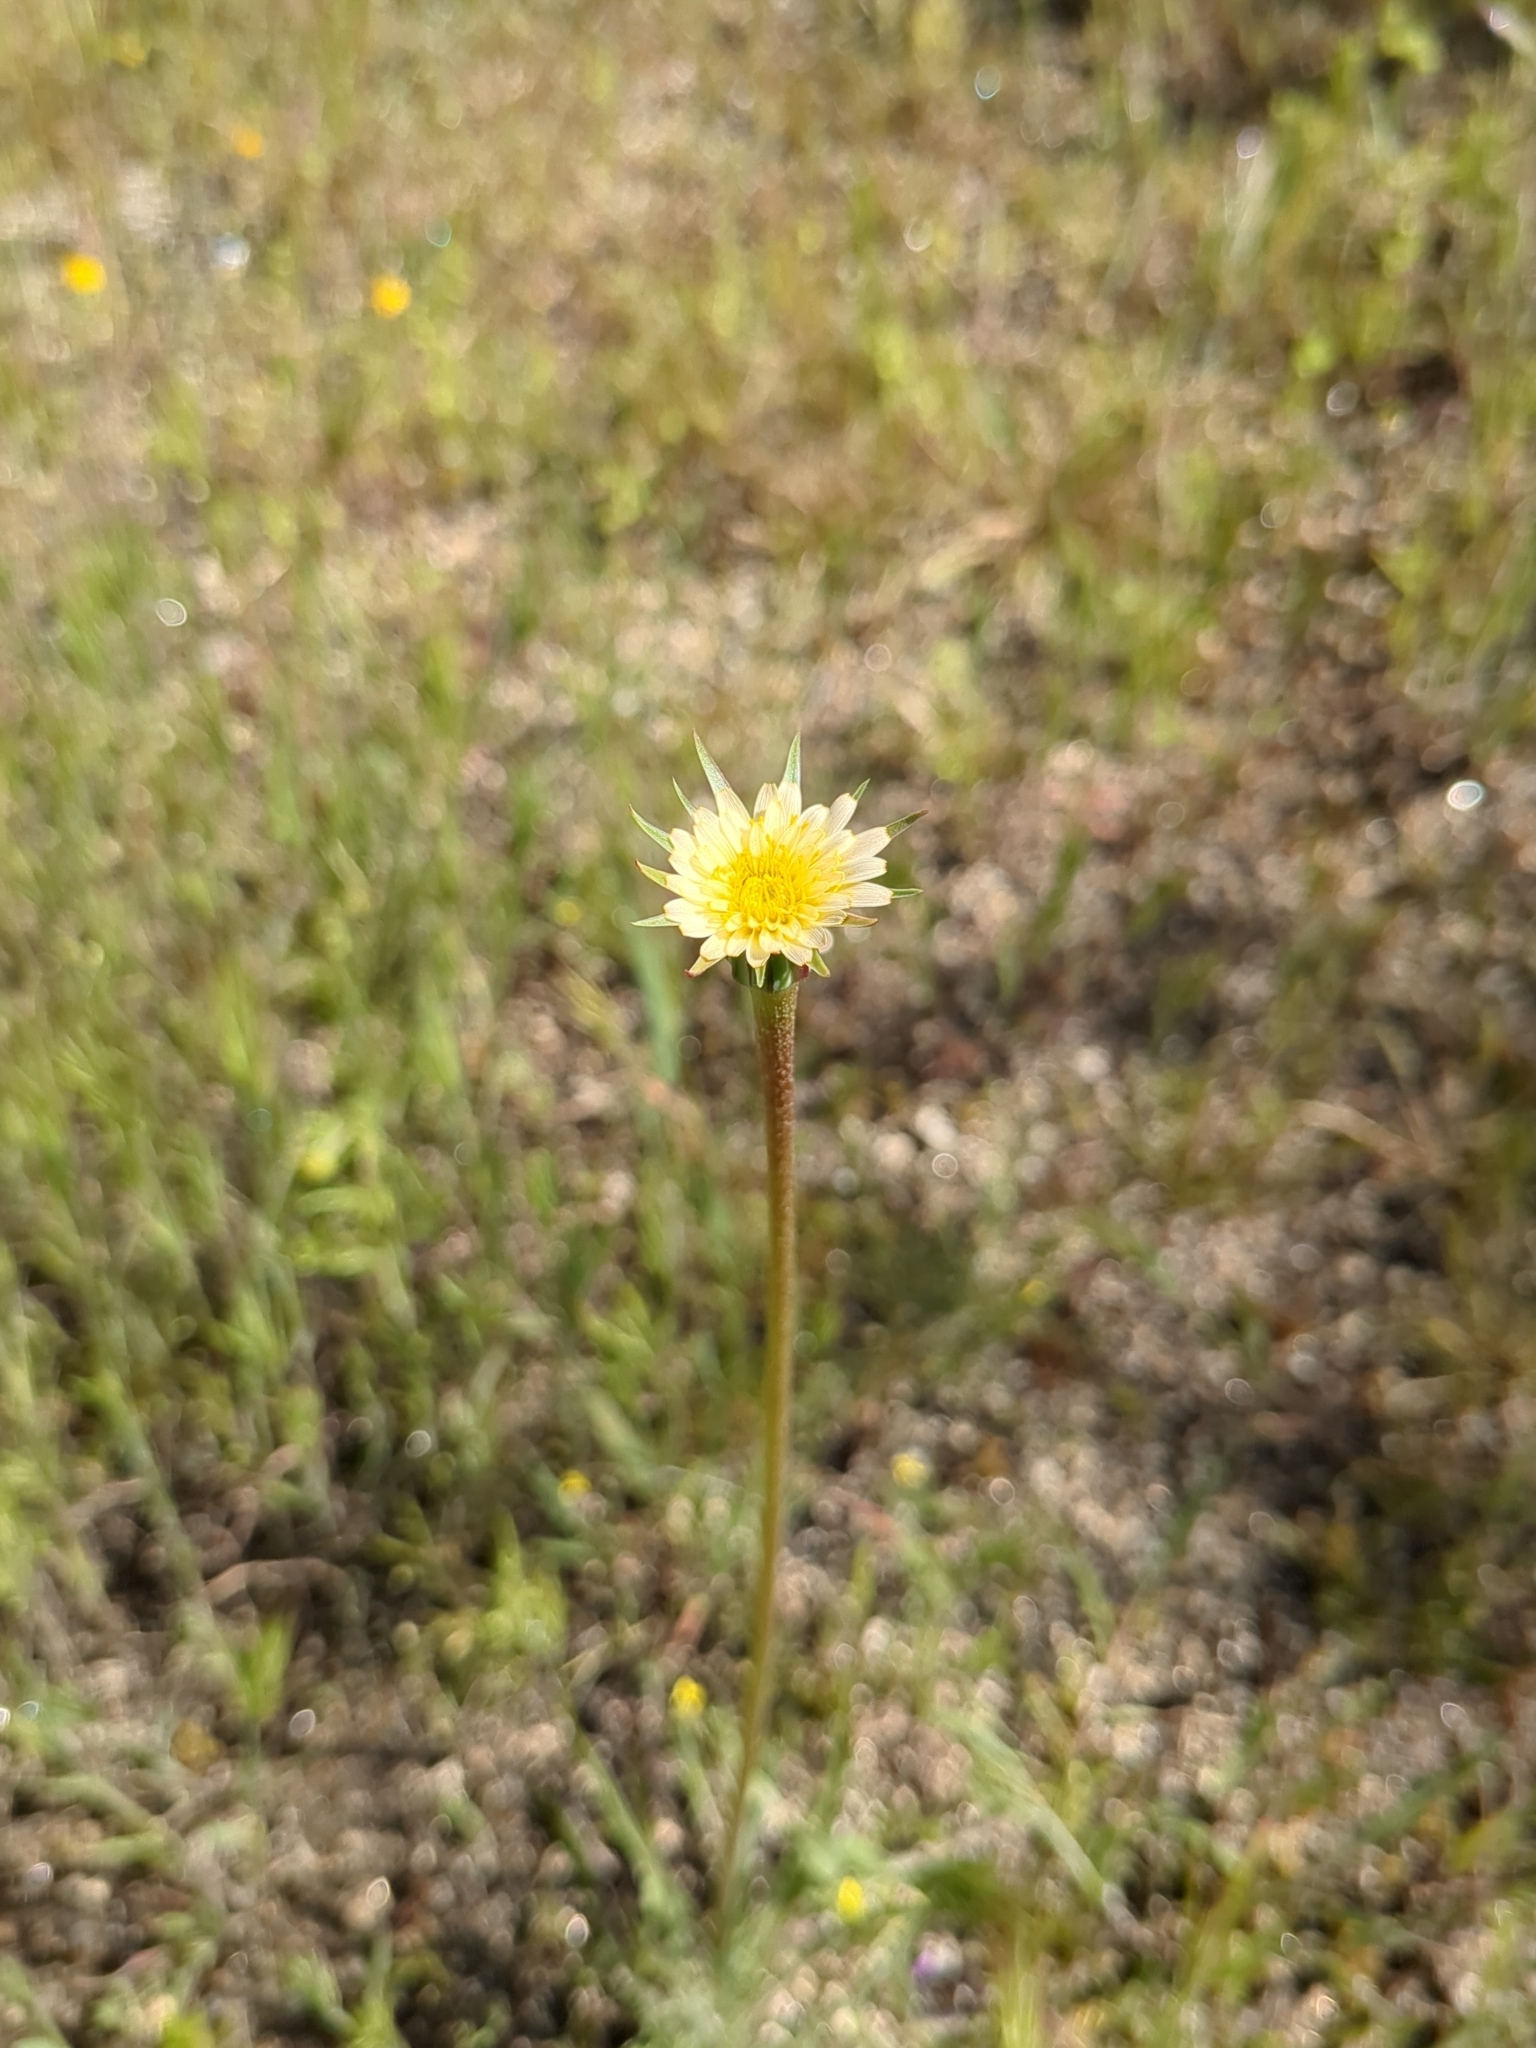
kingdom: Plantae
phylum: Tracheophyta
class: Magnoliopsida
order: Asterales
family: Asteraceae
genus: Microseris
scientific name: Microseris lindleyi
